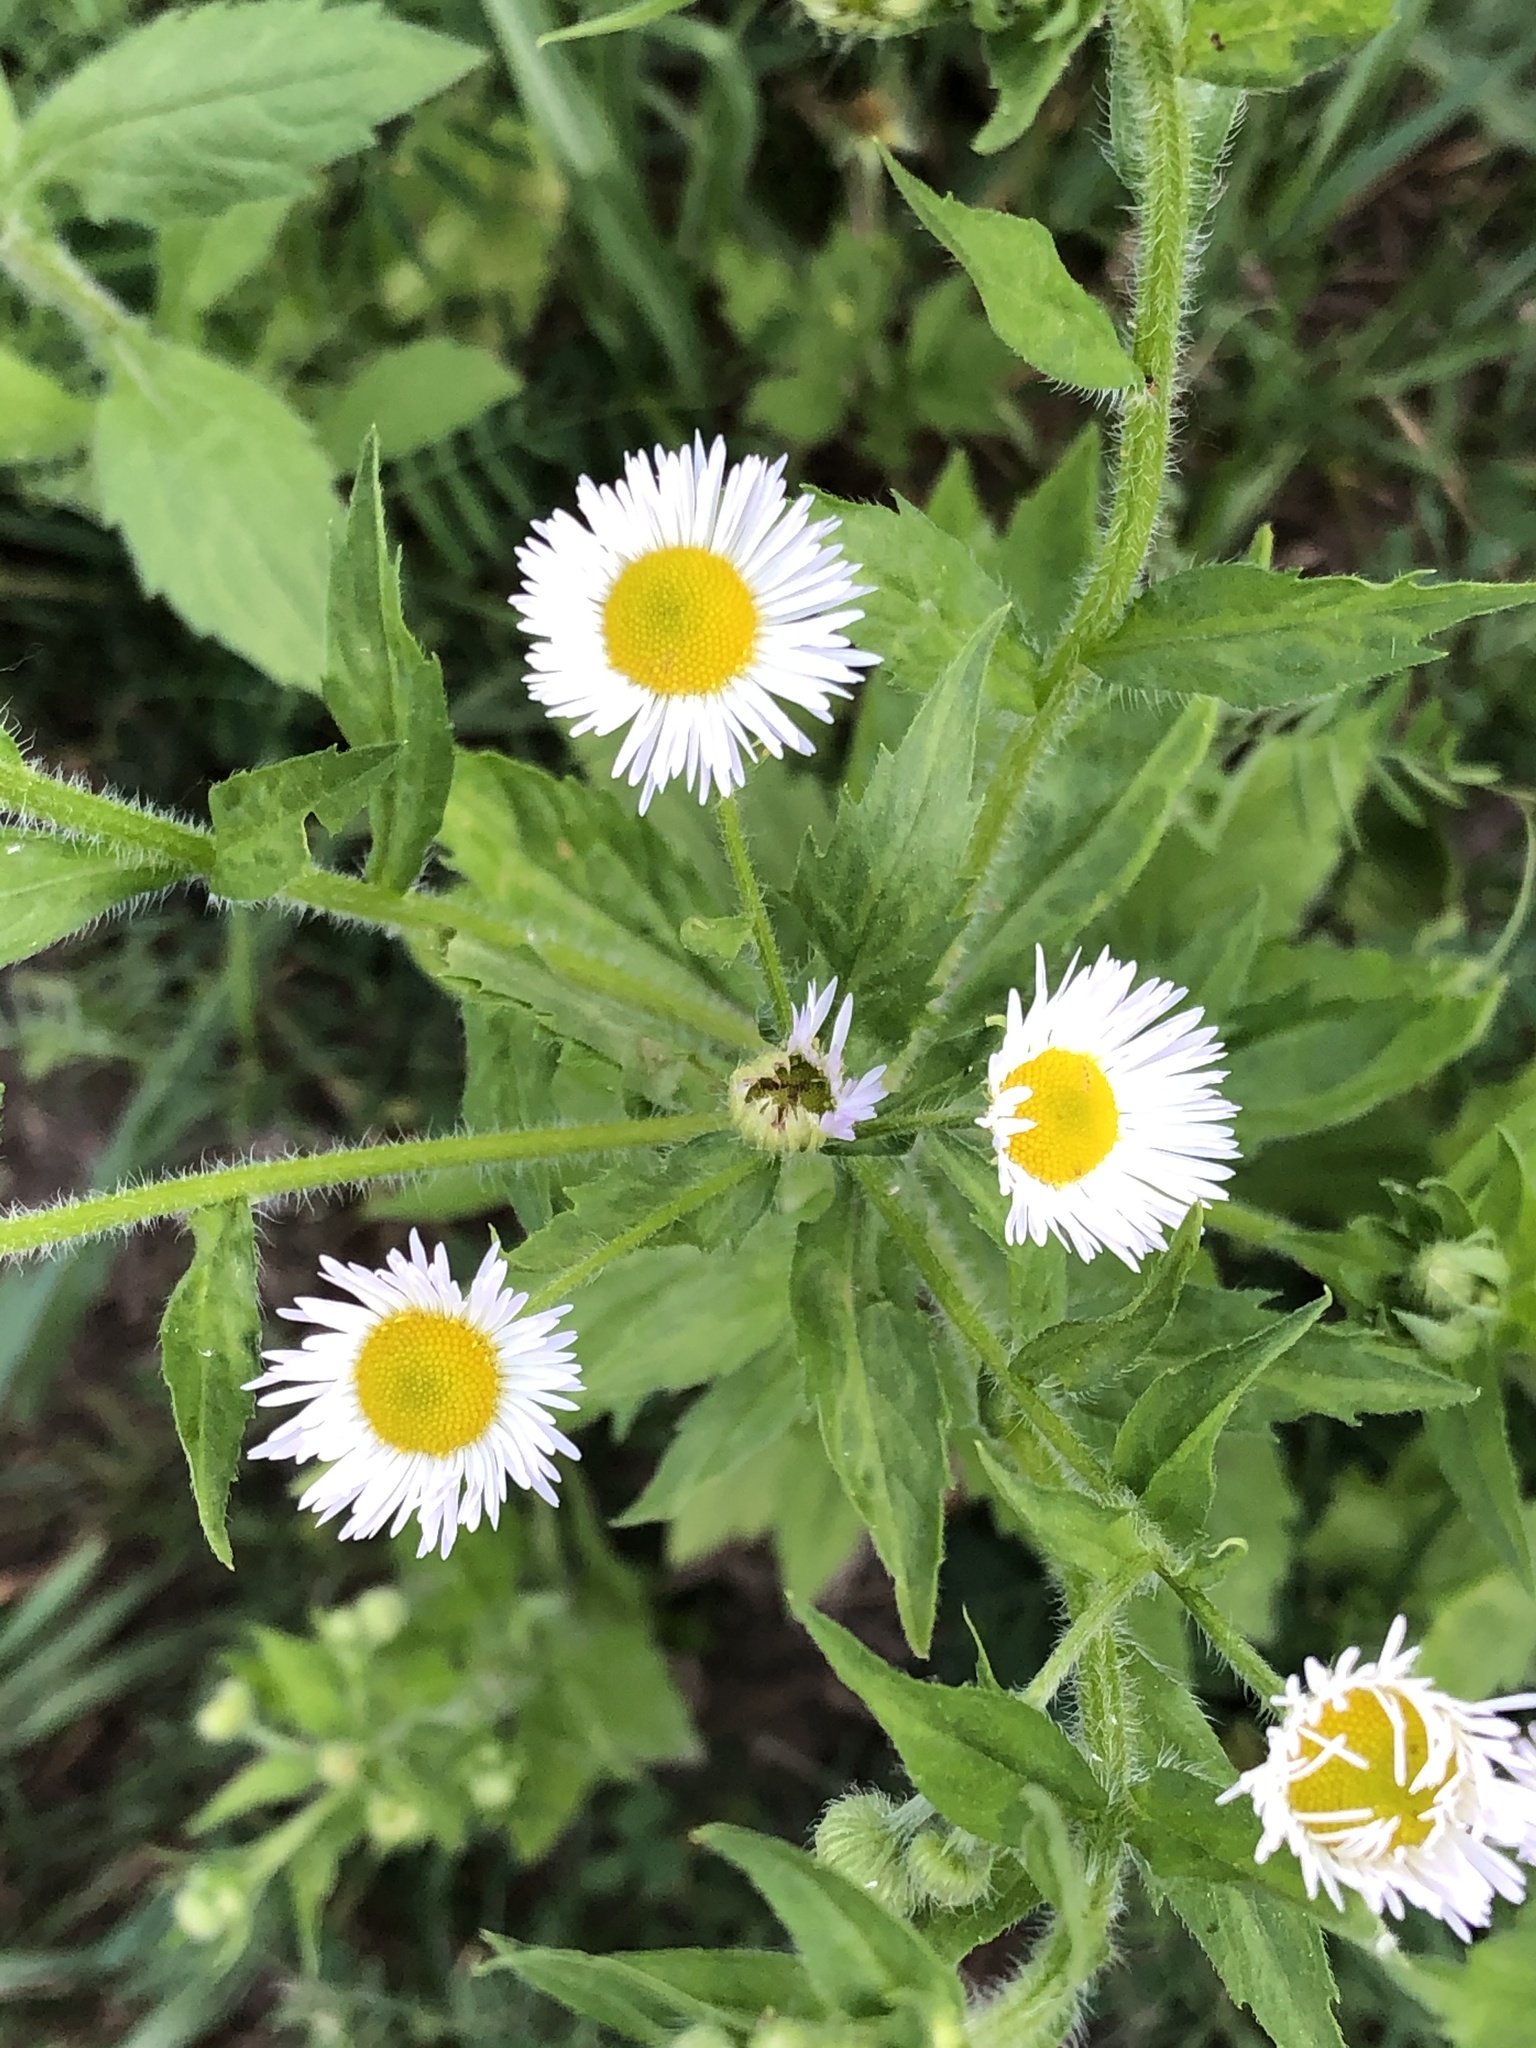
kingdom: Plantae
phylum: Tracheophyta
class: Magnoliopsida
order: Asterales
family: Asteraceae
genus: Erigeron
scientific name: Erigeron annuus
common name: Tall fleabane
